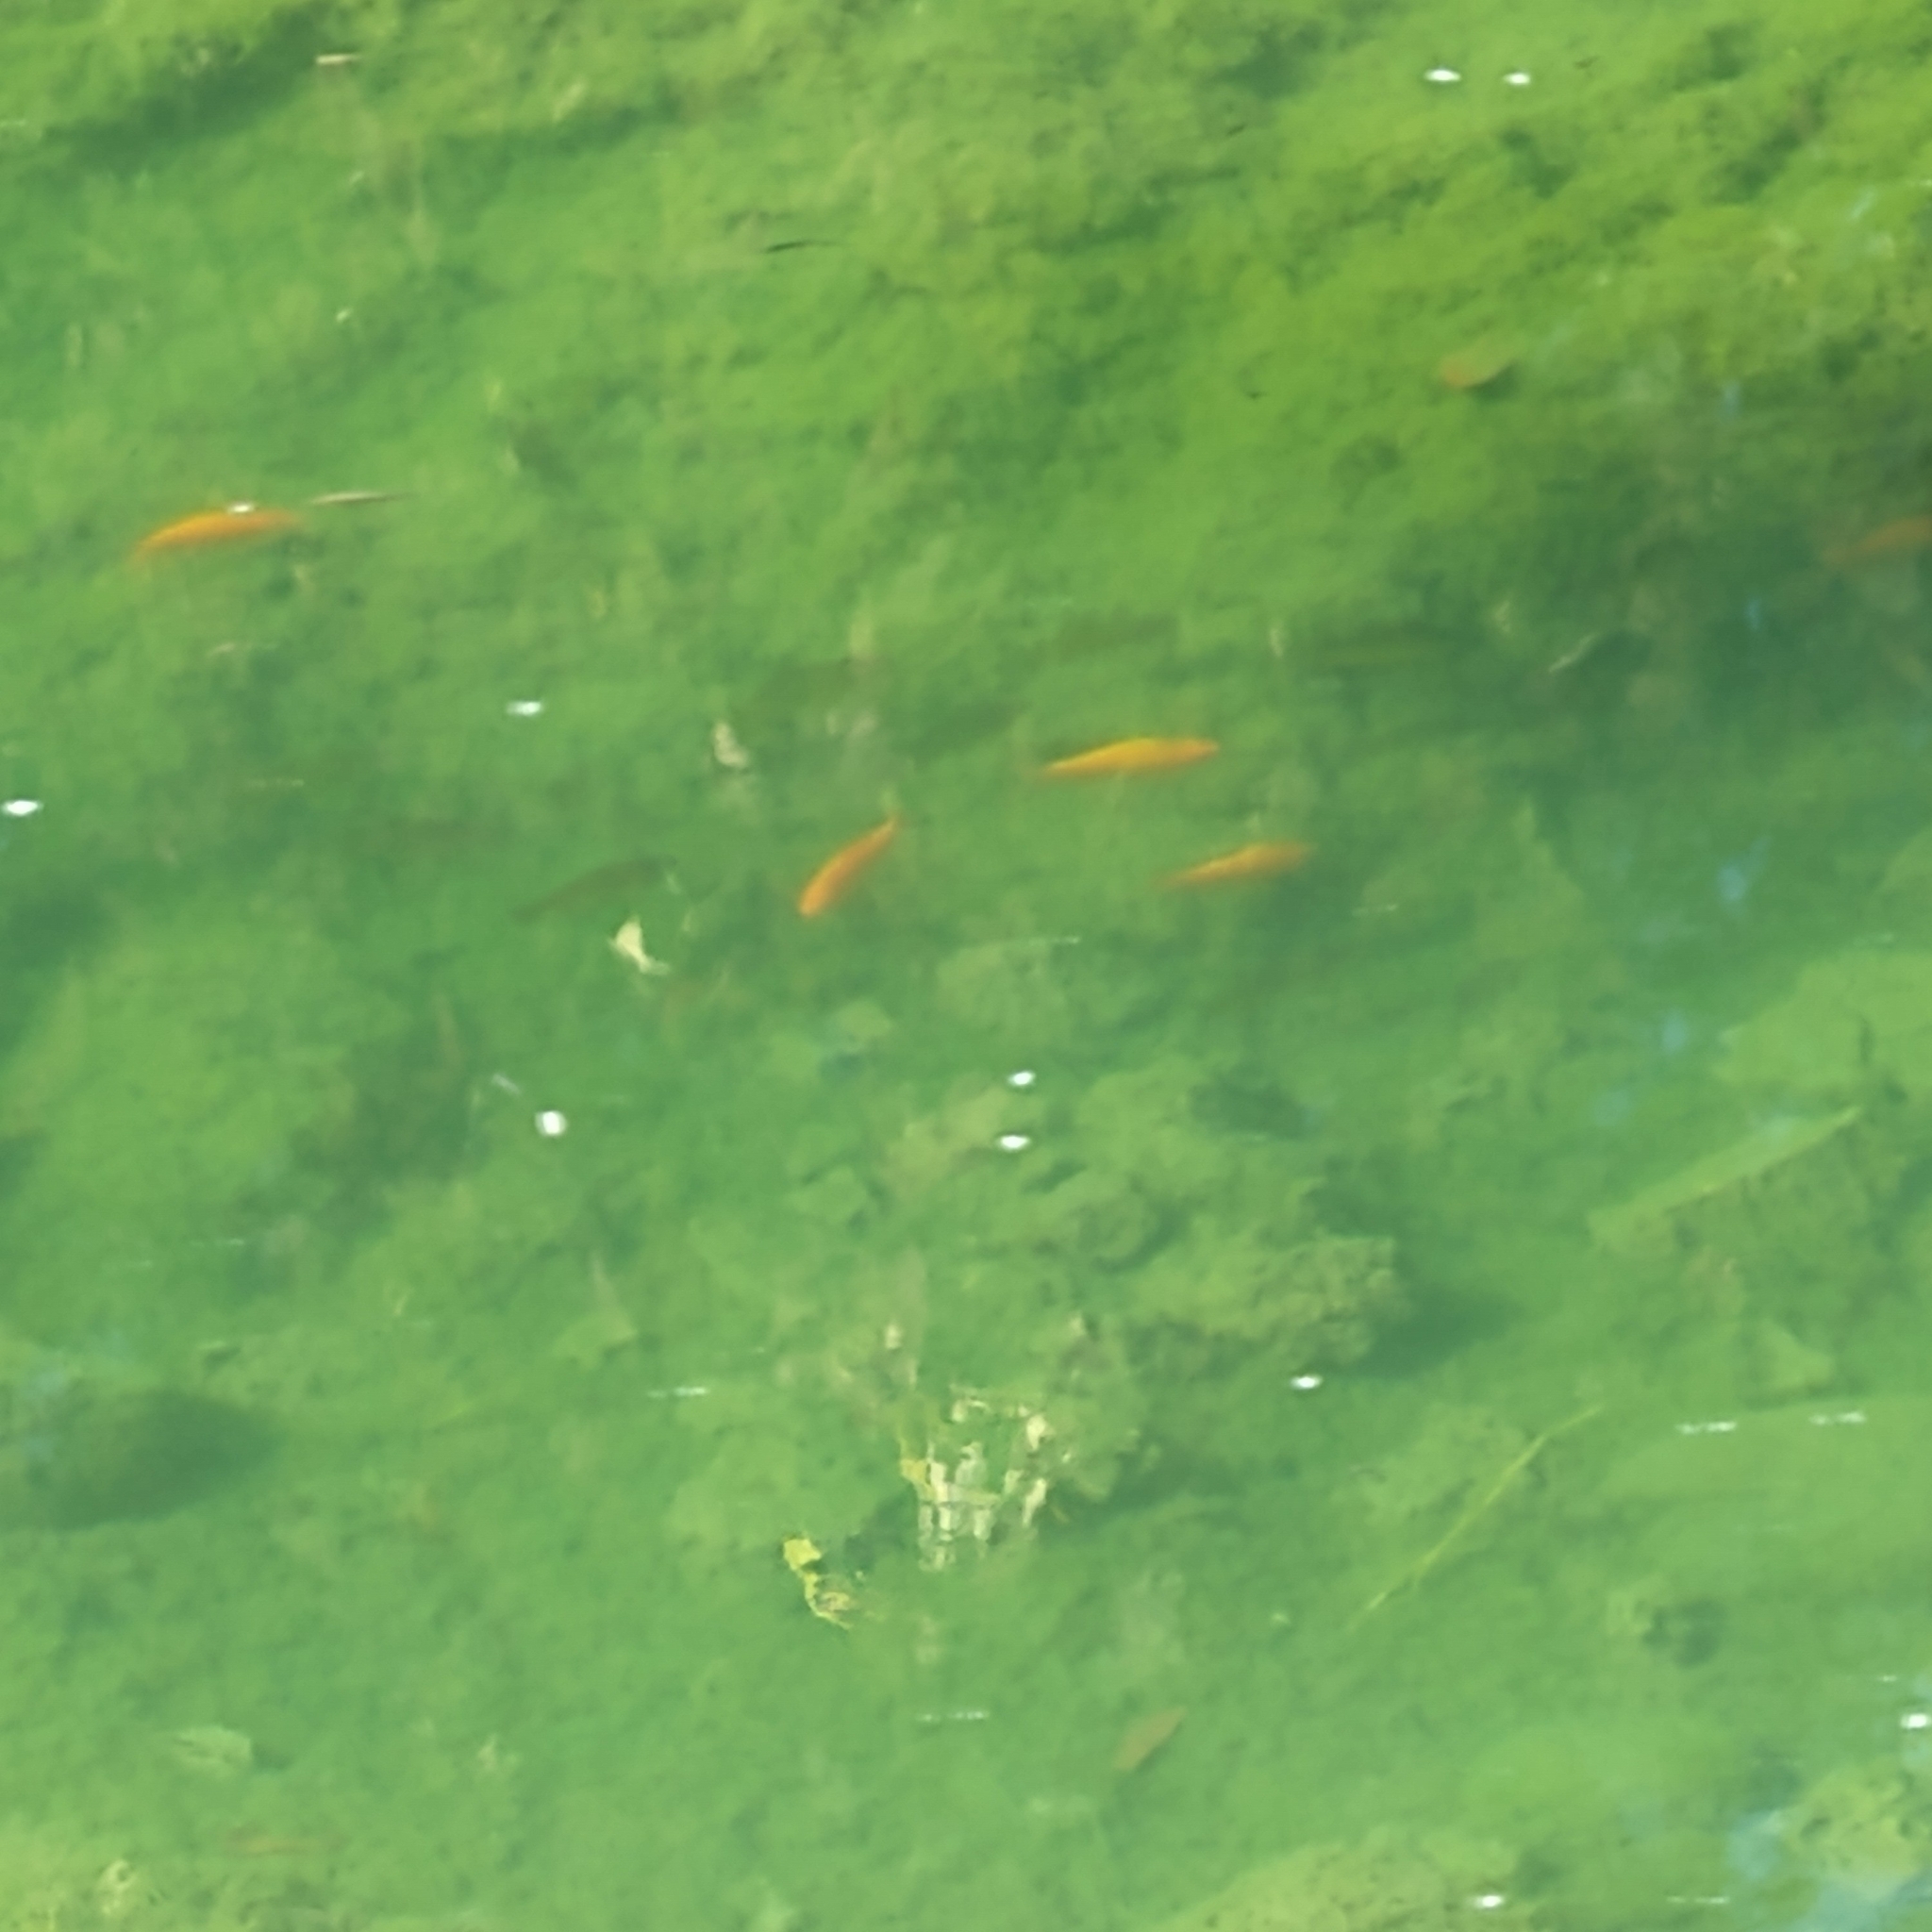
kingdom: Animalia
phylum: Chordata
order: Cypriniformes
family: Cyprinidae
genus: Carassius
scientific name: Carassius auratus
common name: Goldfish
